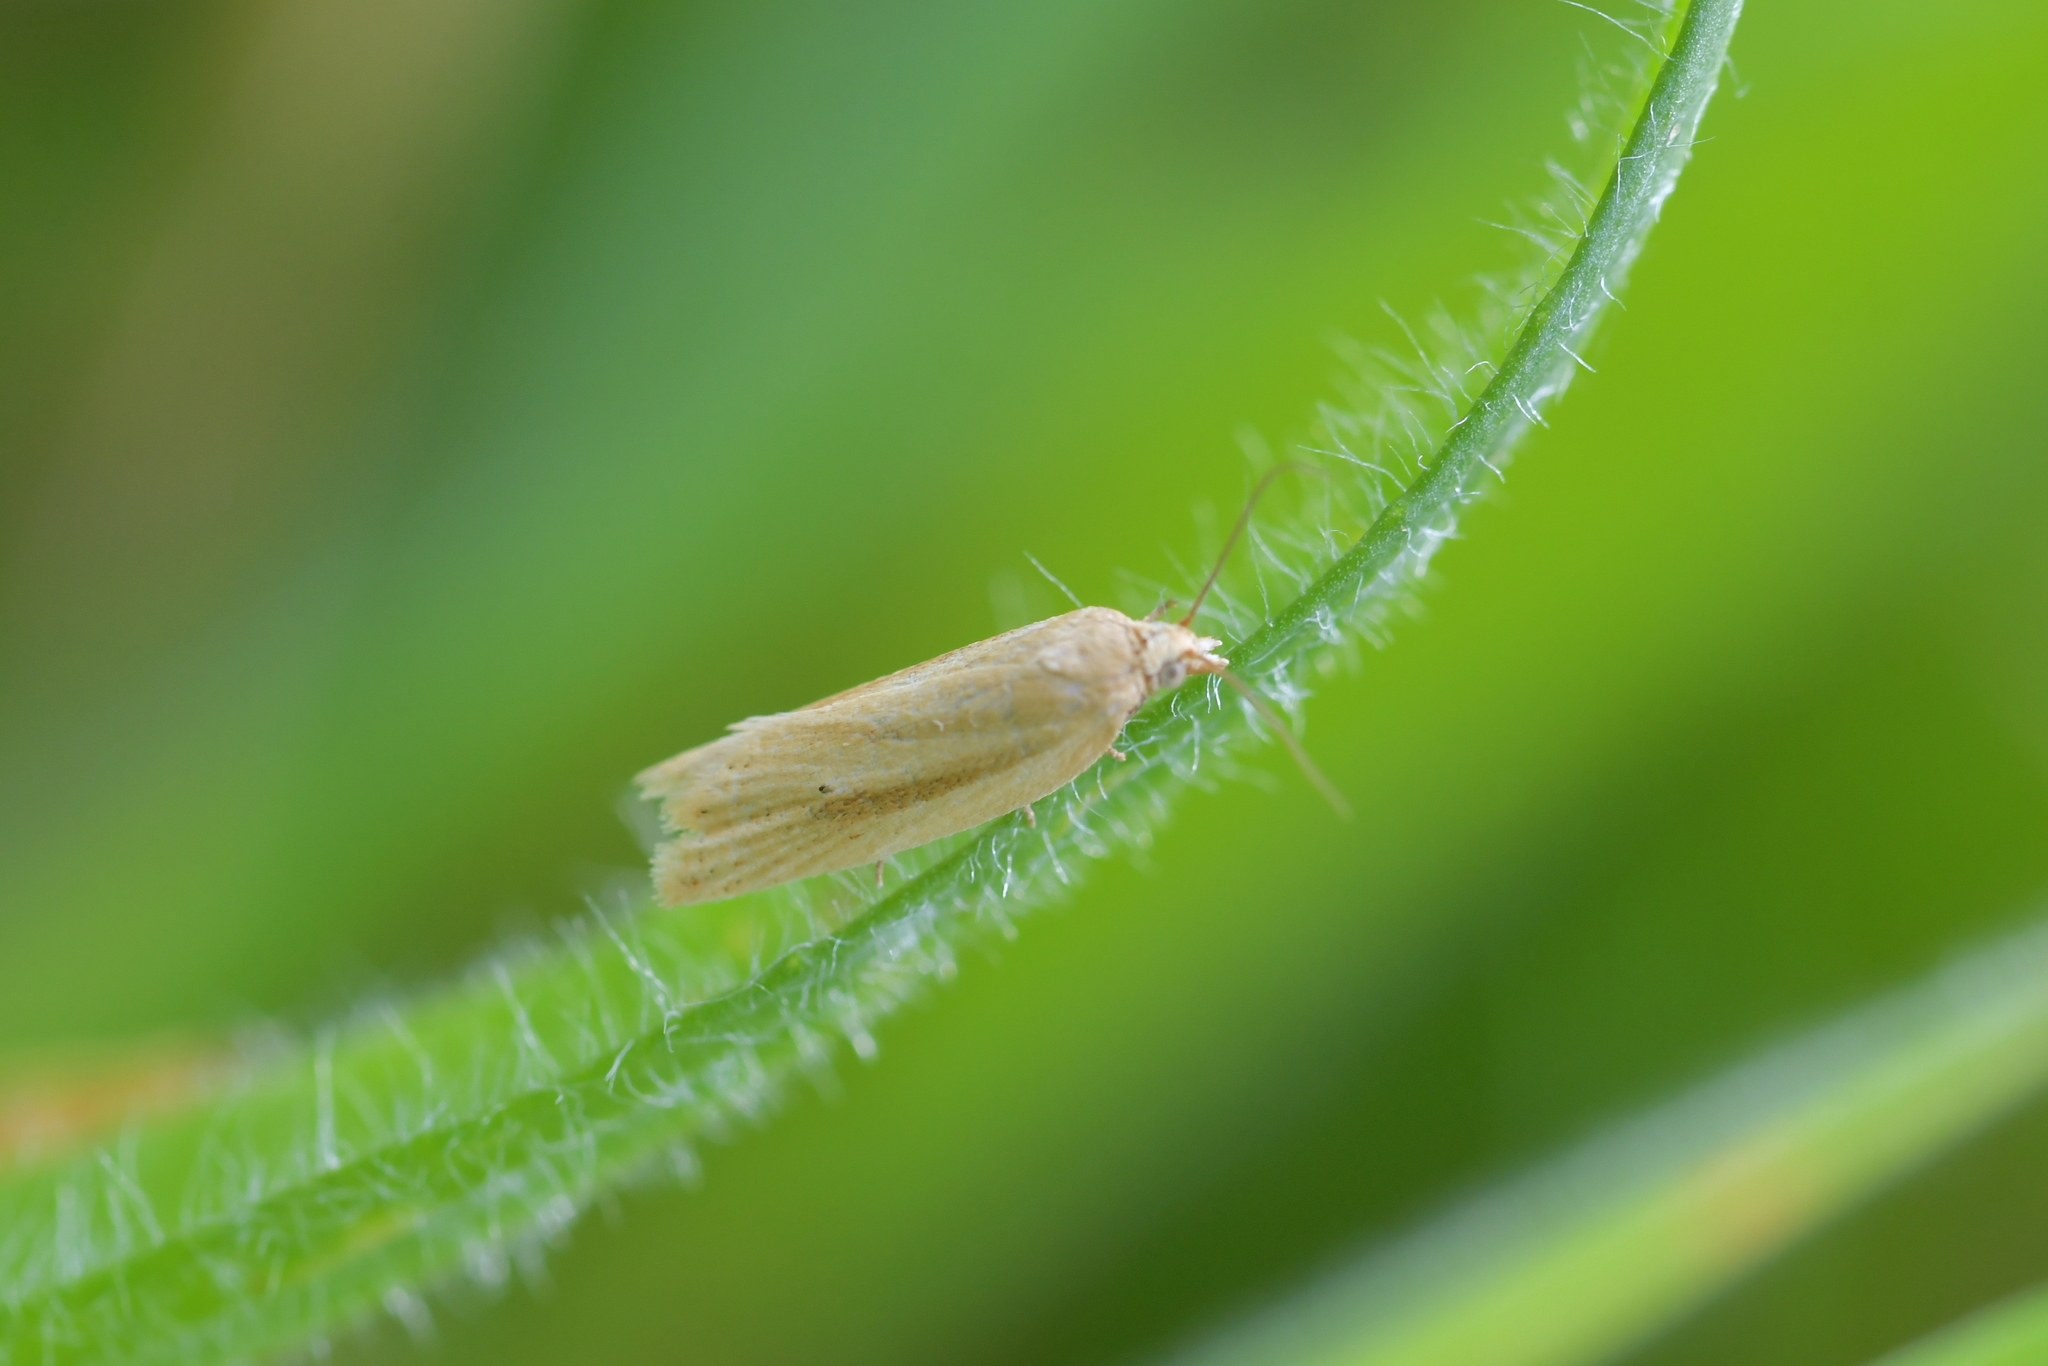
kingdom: Animalia
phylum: Arthropoda
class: Insecta
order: Lepidoptera
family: Tortricidae
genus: Clepsis
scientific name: Clepsis
